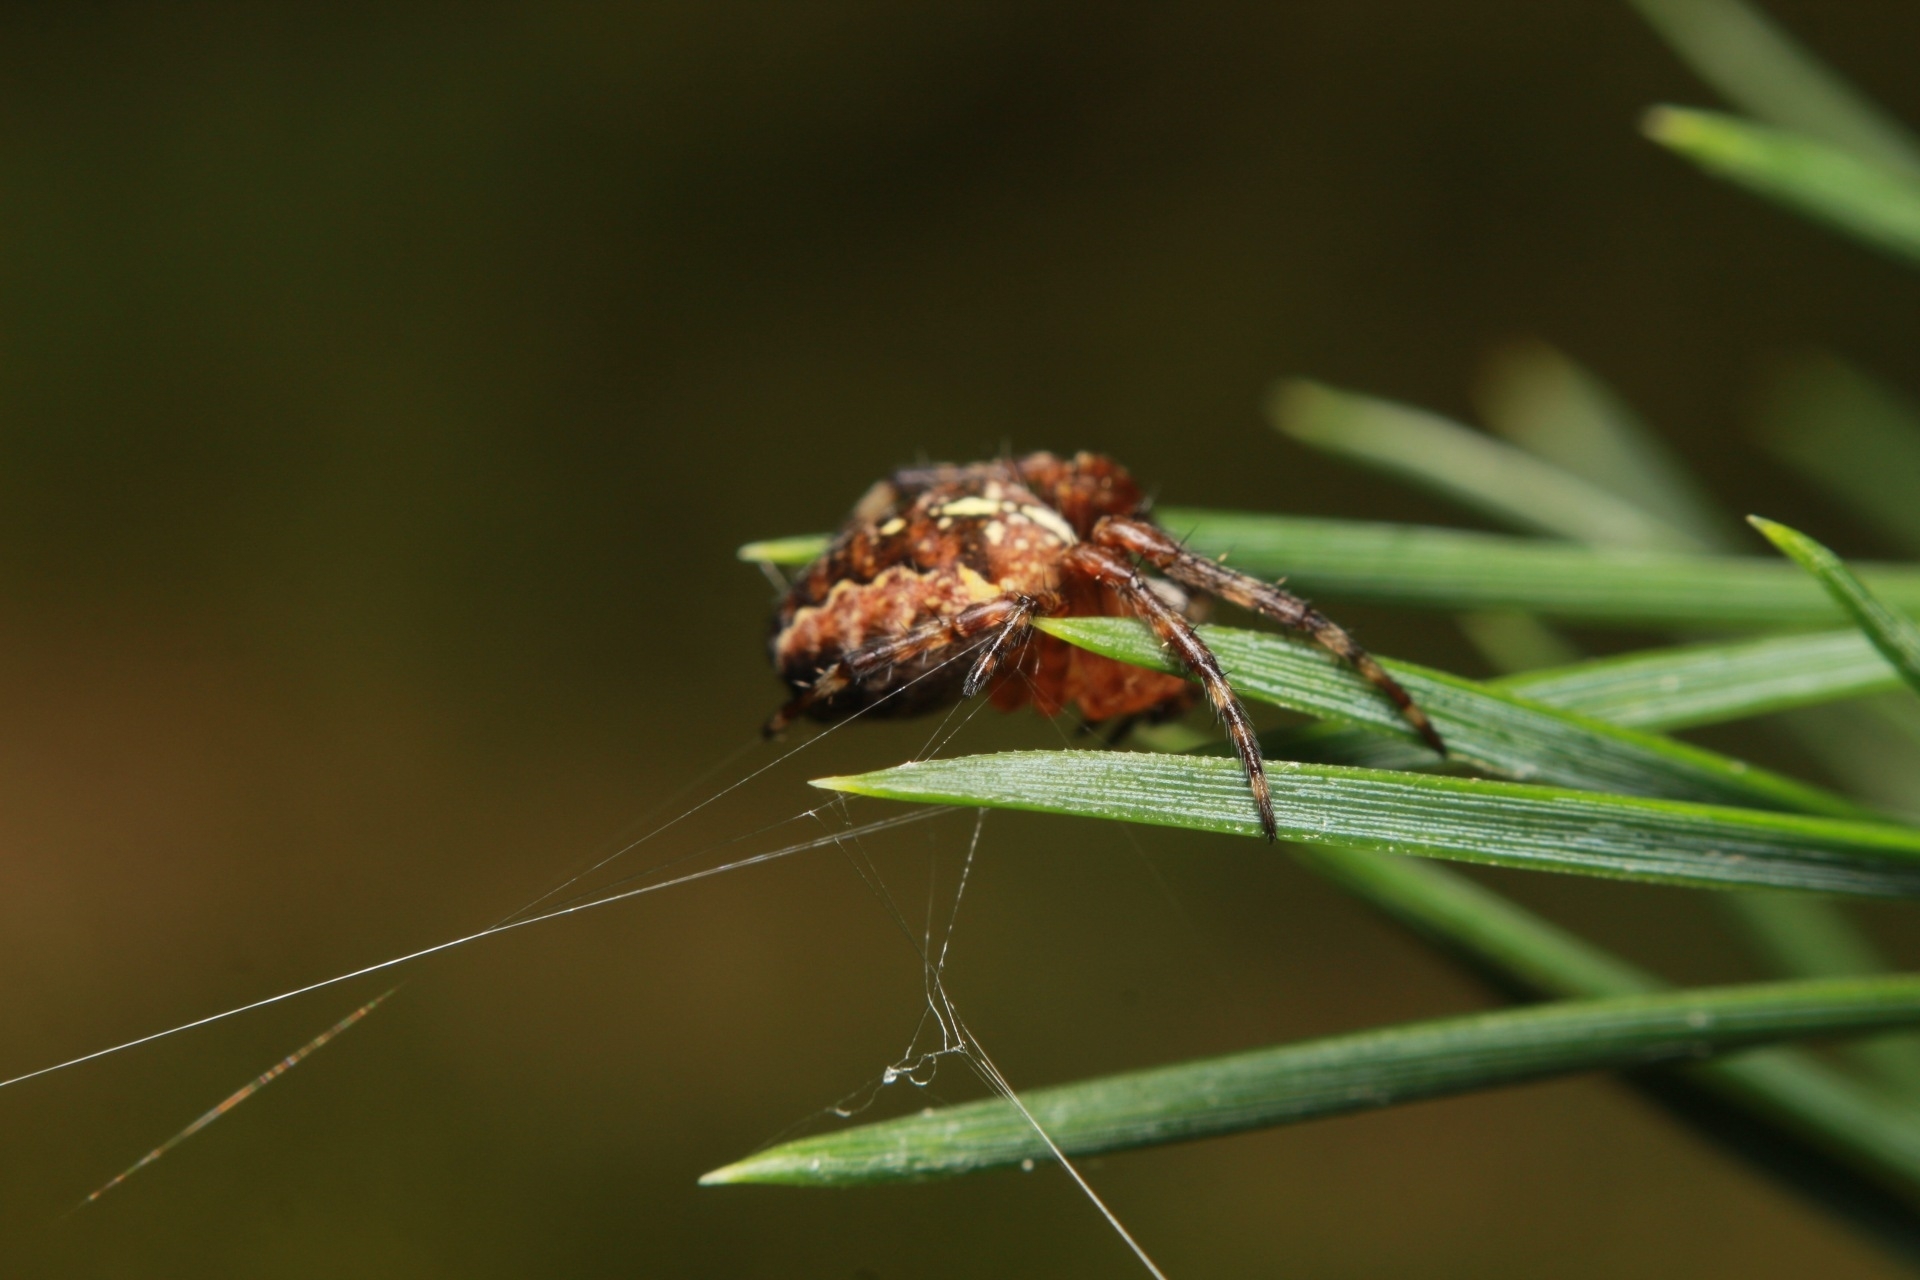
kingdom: Animalia
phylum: Arthropoda
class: Arachnida
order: Araneae
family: Araneidae
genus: Araneus
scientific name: Araneus diadematus
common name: Cross orbweaver
